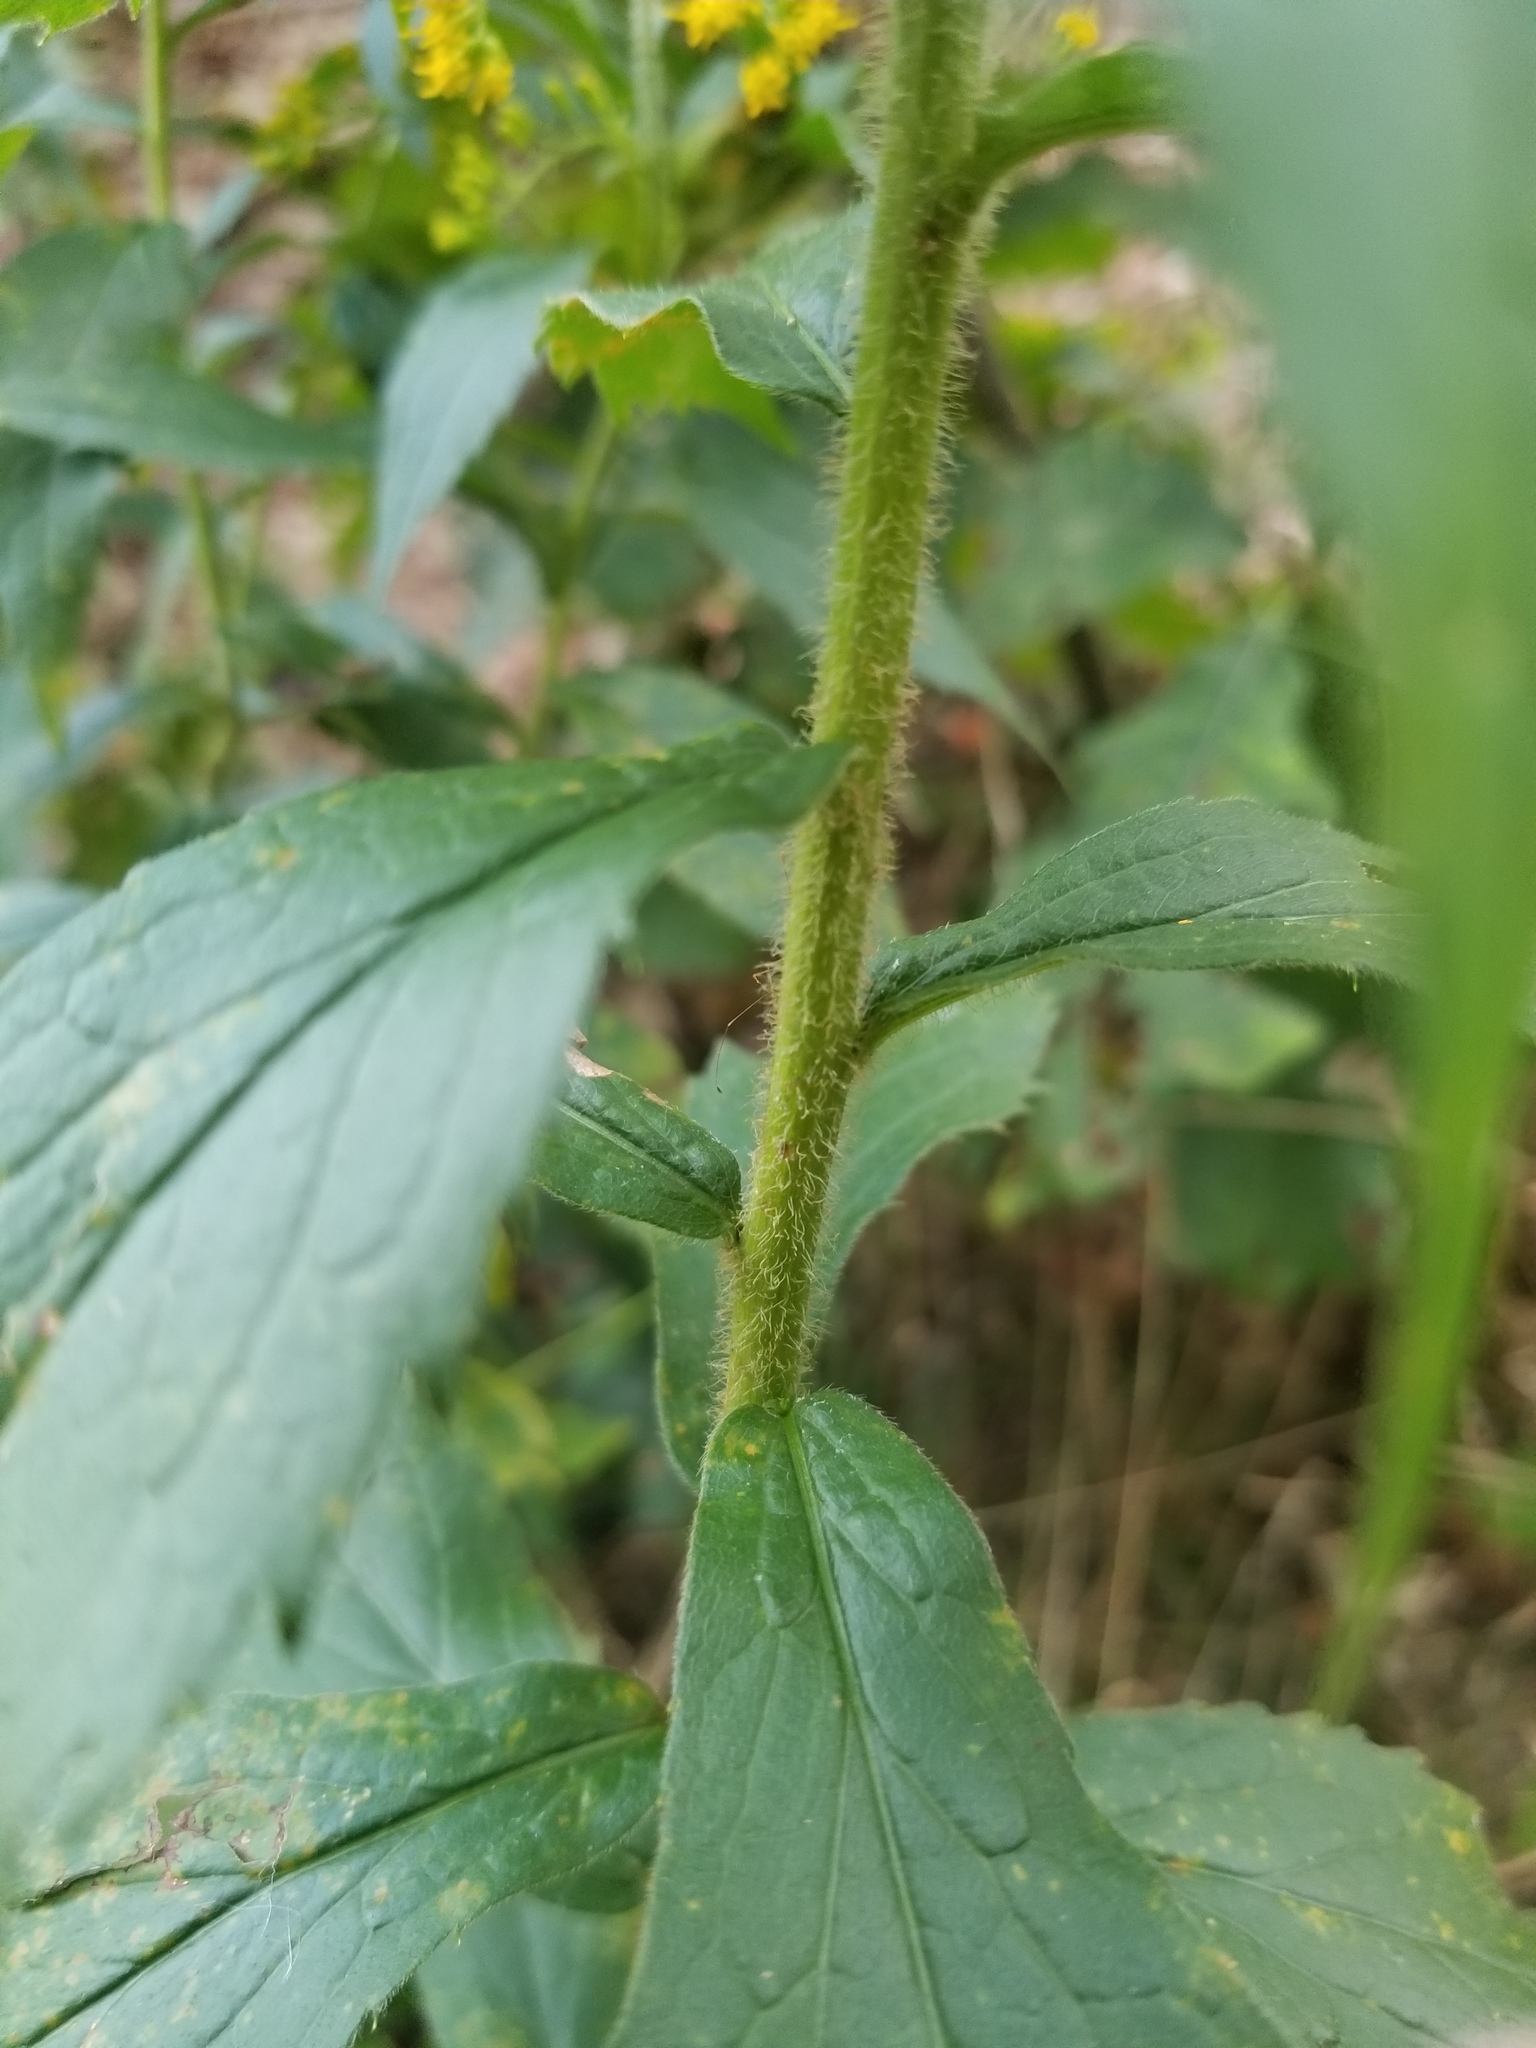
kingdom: Plantae
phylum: Tracheophyta
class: Magnoliopsida
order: Asterales
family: Asteraceae
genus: Solidago
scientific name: Solidago rugosa
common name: Rough-stemmed goldenrod
